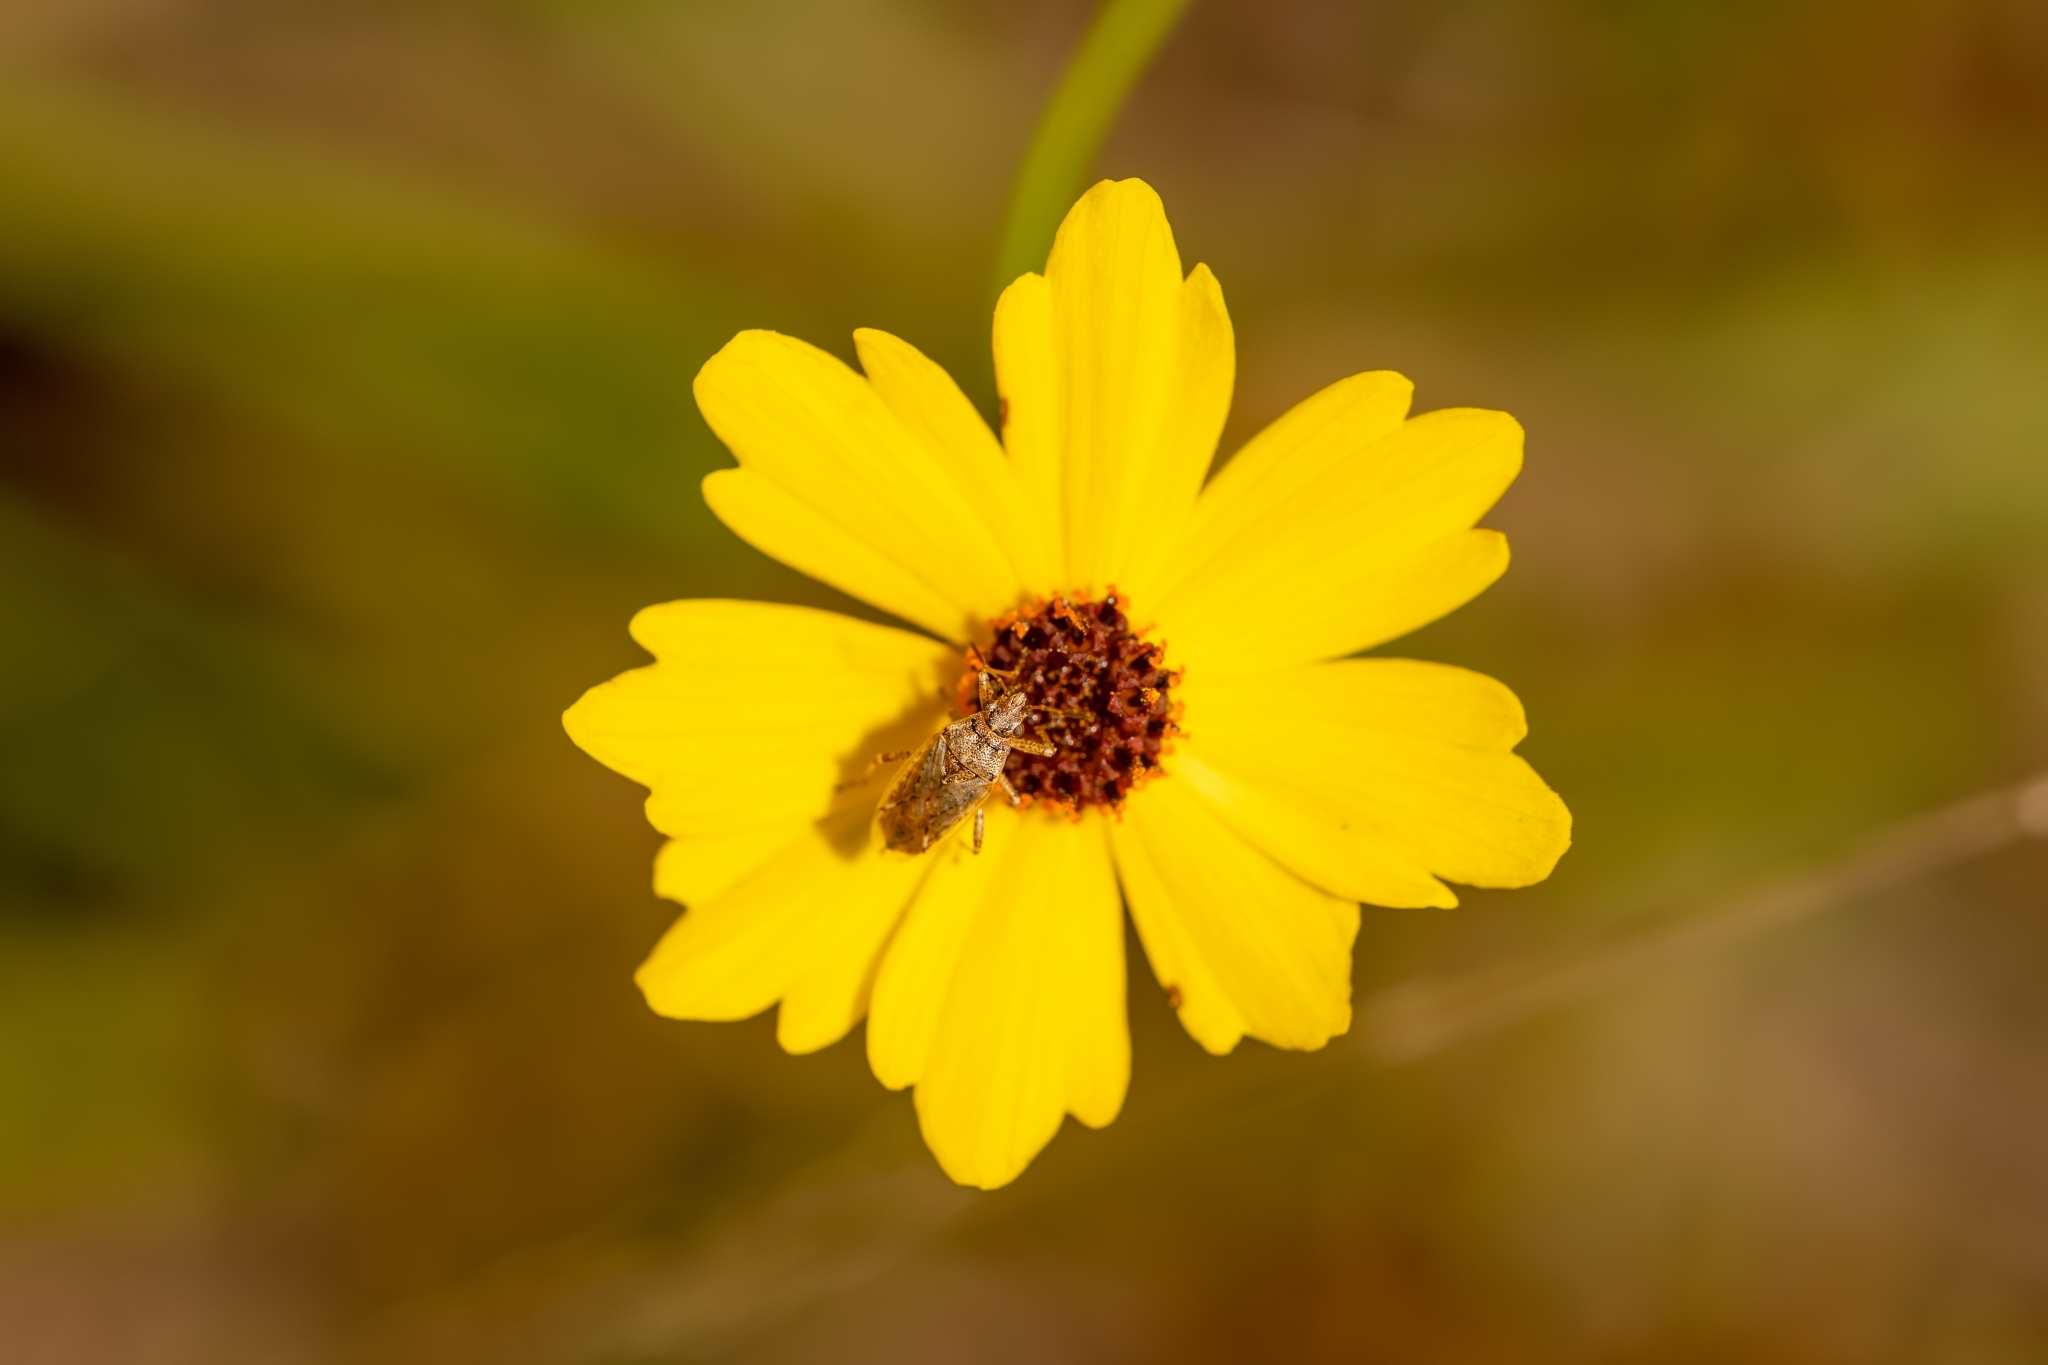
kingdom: Animalia
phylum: Arthropoda
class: Insecta
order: Hemiptera
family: Lygaeidae
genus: Xyonysius
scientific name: Xyonysius californicus
